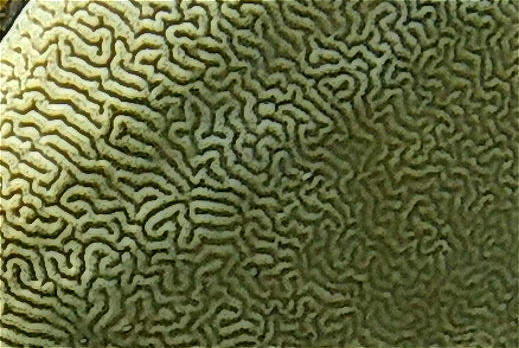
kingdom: Animalia
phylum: Cnidaria
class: Anthozoa
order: Scleractinia
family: Merulinidae
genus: Leptoria
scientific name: Leptoria phrygia
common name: Least valley coral
